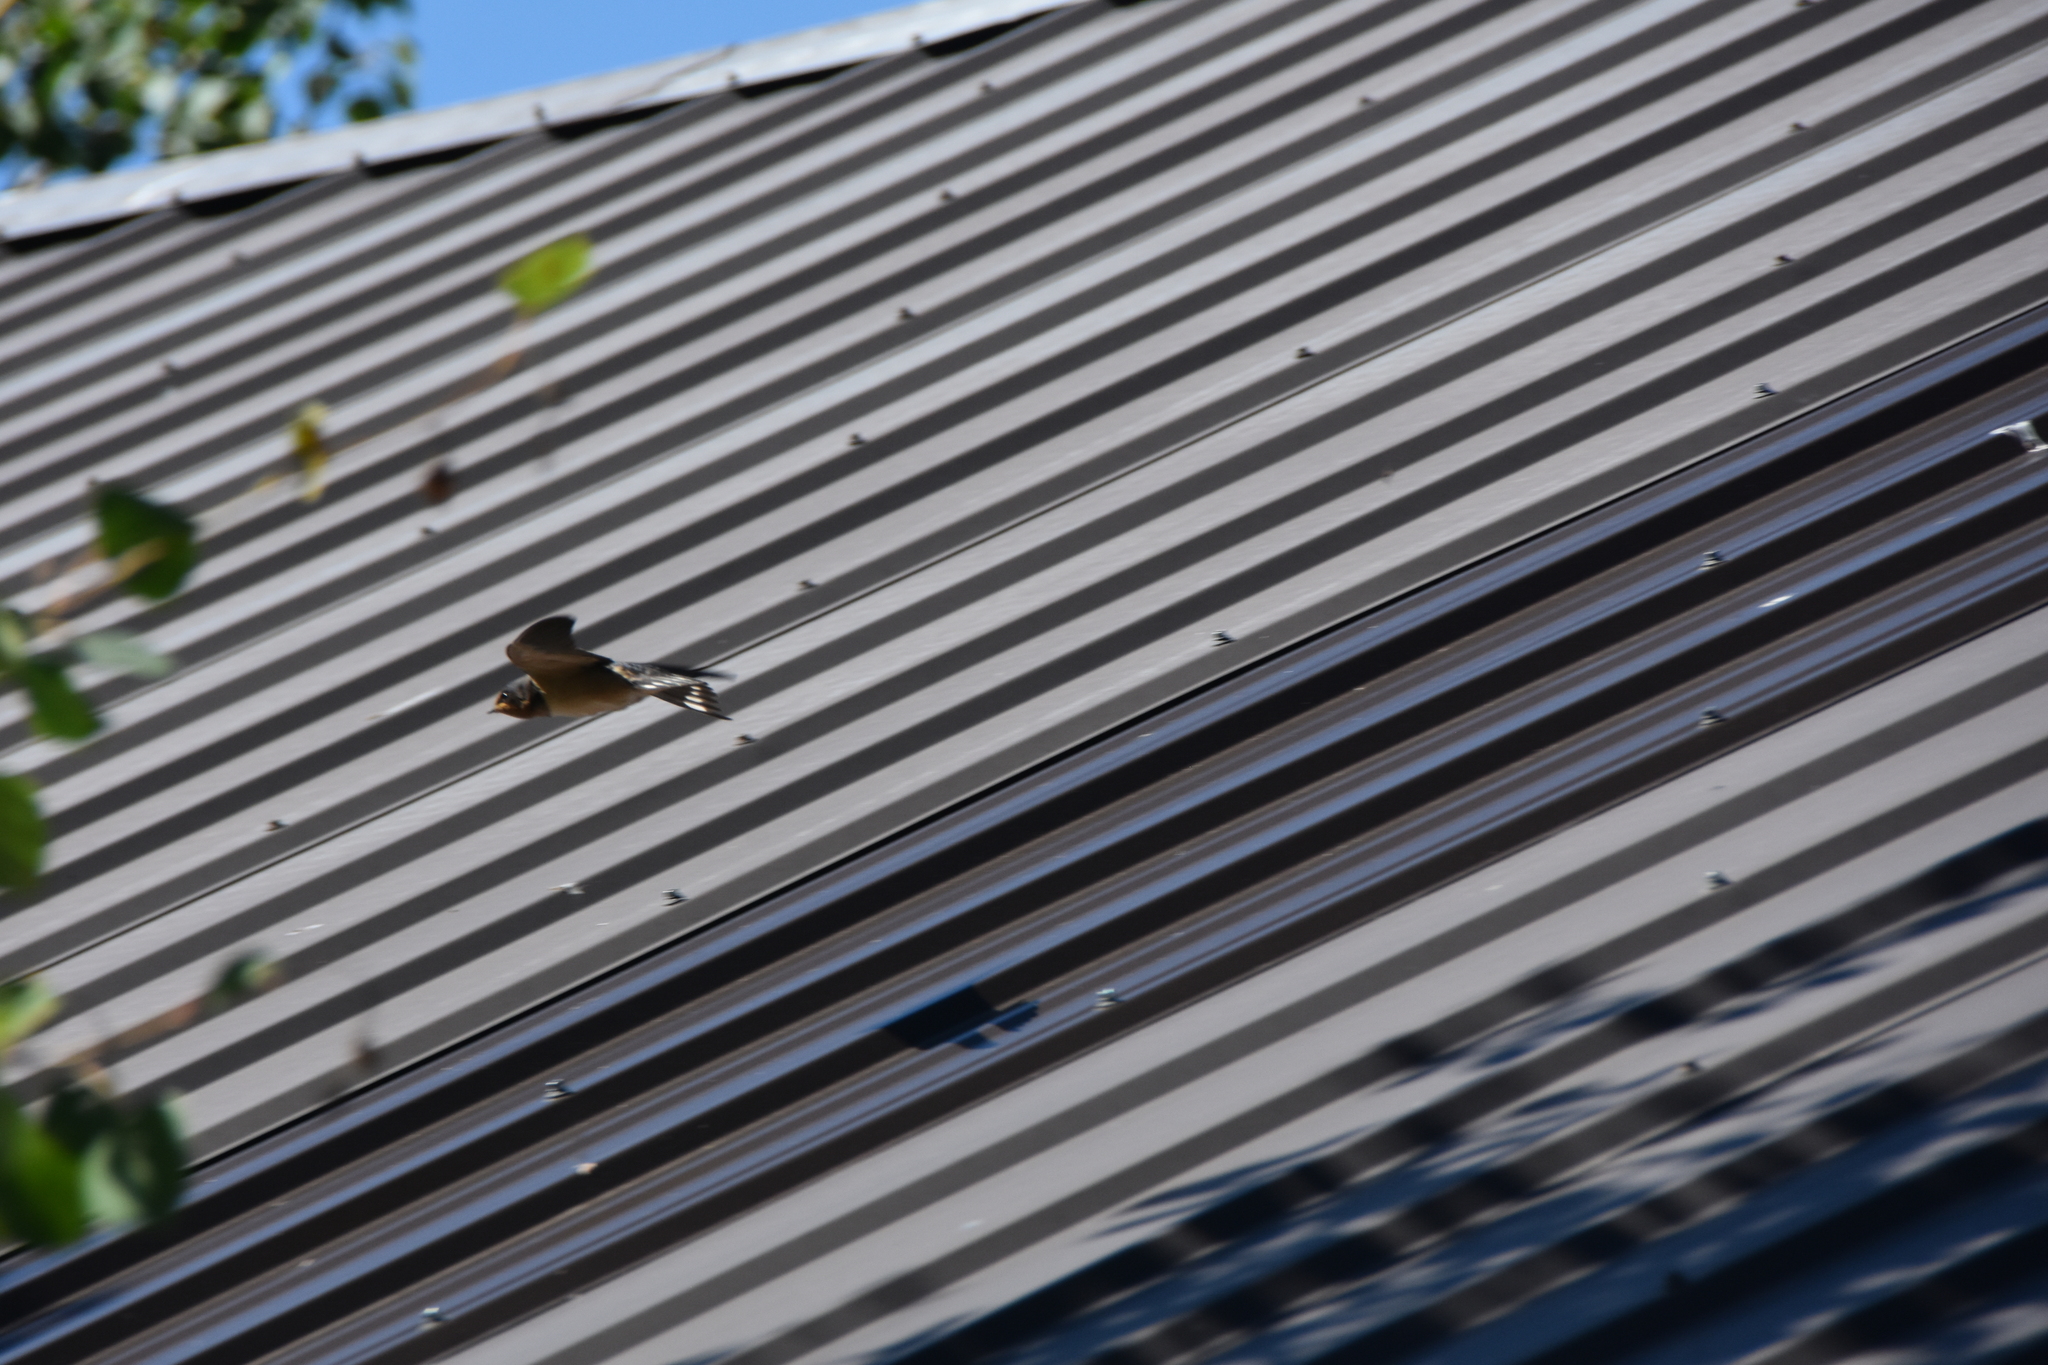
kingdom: Animalia
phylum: Chordata
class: Aves
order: Passeriformes
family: Hirundinidae
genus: Hirundo
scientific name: Hirundo rustica
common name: Barn swallow
